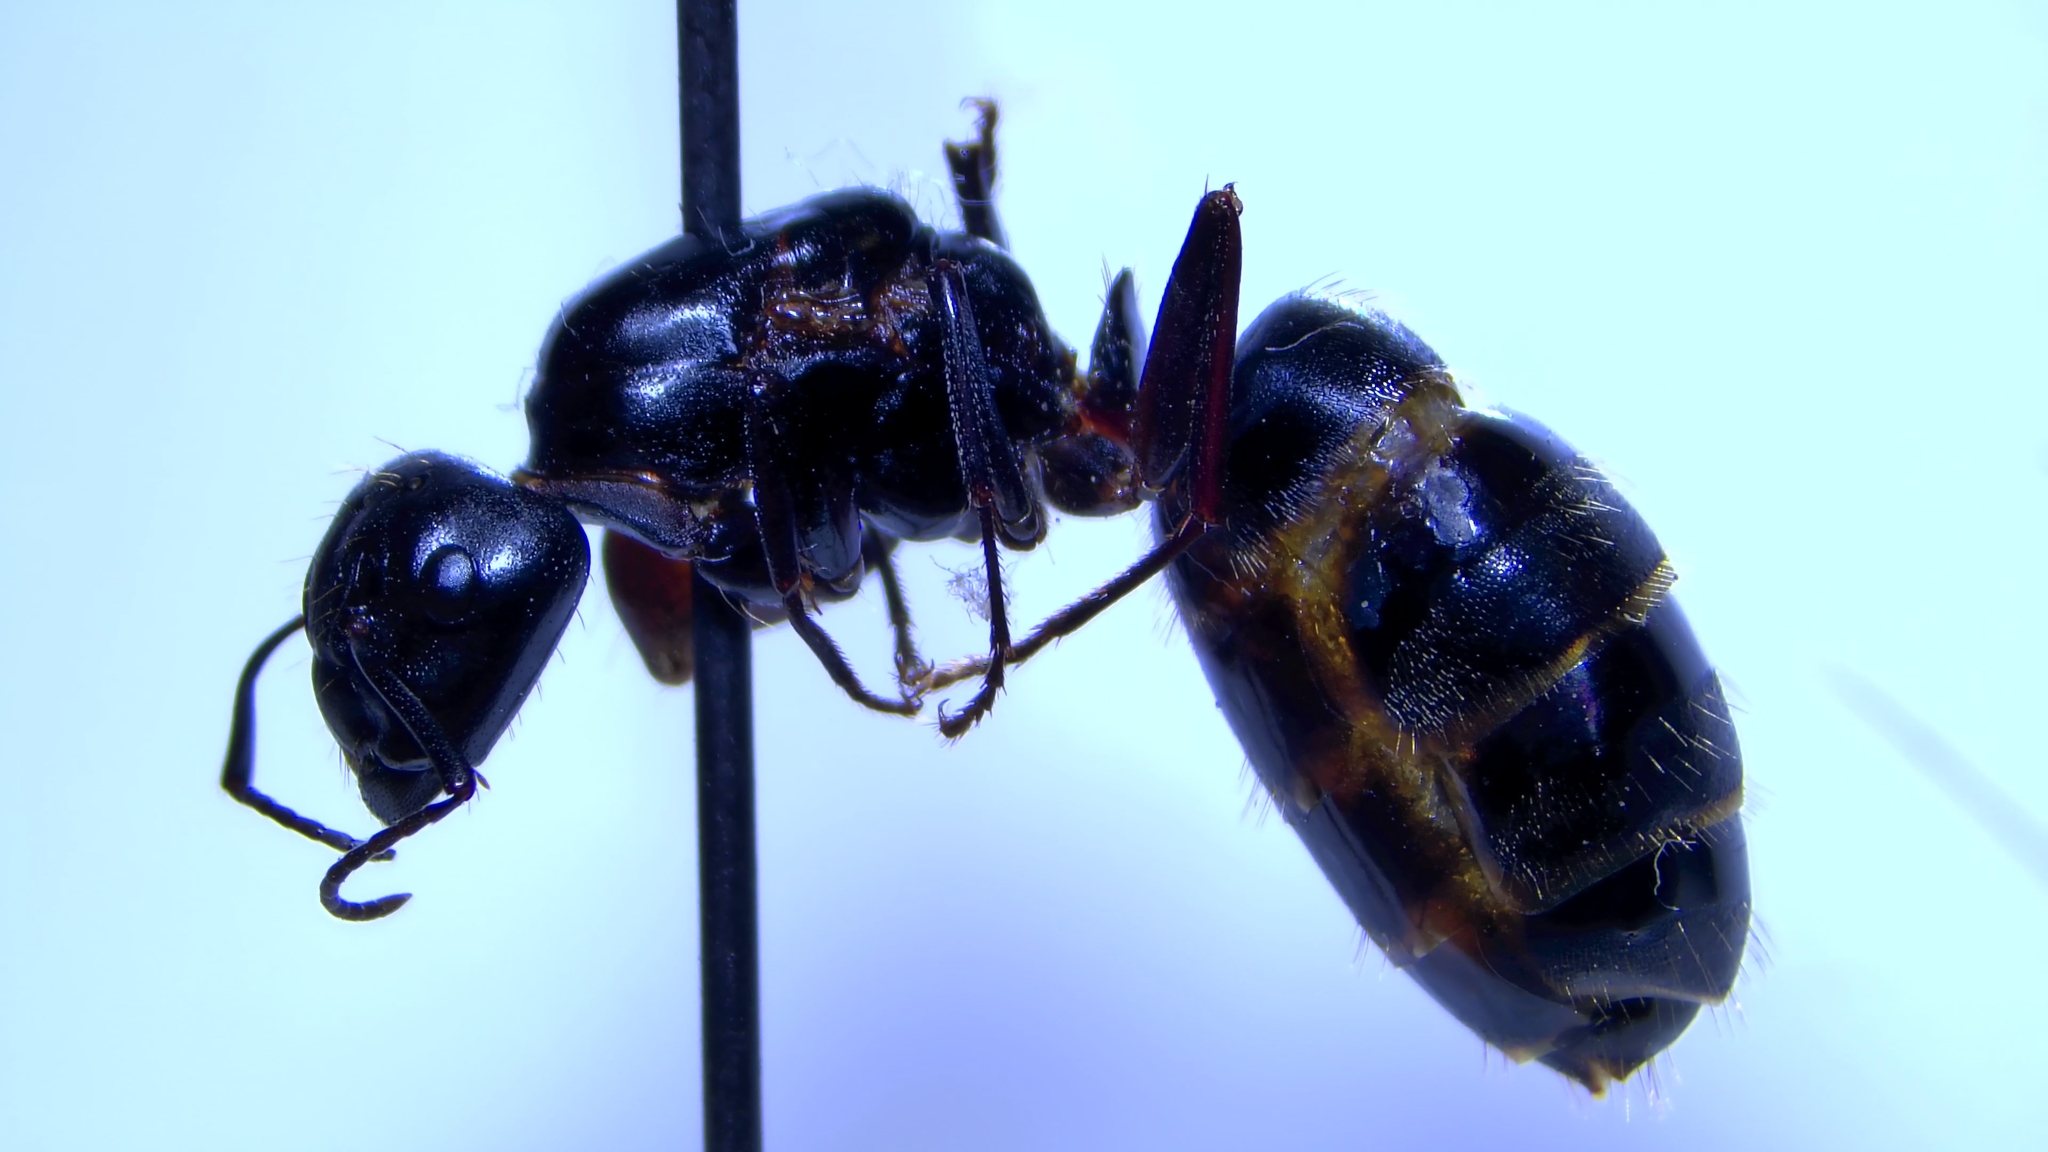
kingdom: Animalia
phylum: Arthropoda
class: Insecta
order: Hymenoptera
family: Formicidae
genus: Camponotus
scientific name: Camponotus pennsylvanicus
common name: Black carpenter ant
